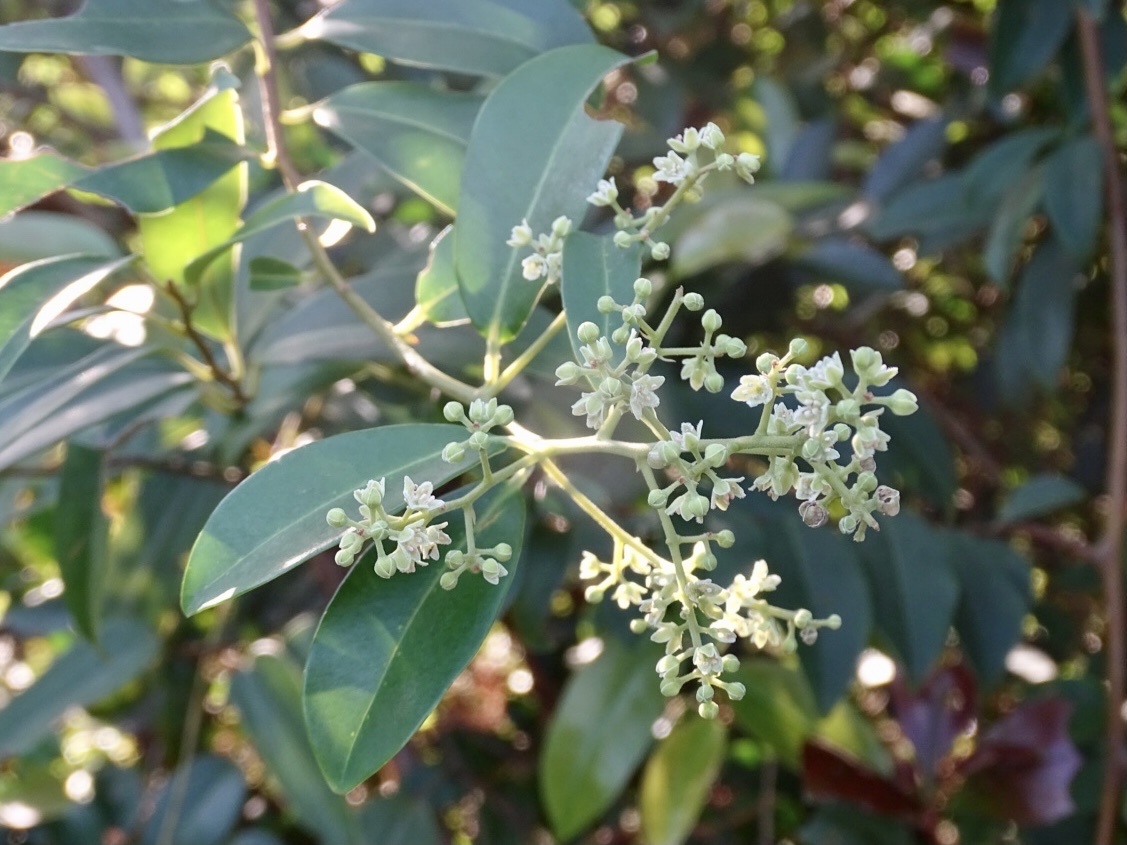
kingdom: Plantae
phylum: Tracheophyta
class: Magnoliopsida
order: Ericales
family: Primulaceae
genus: Embelia
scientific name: Embelia ribes
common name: Vidanga
